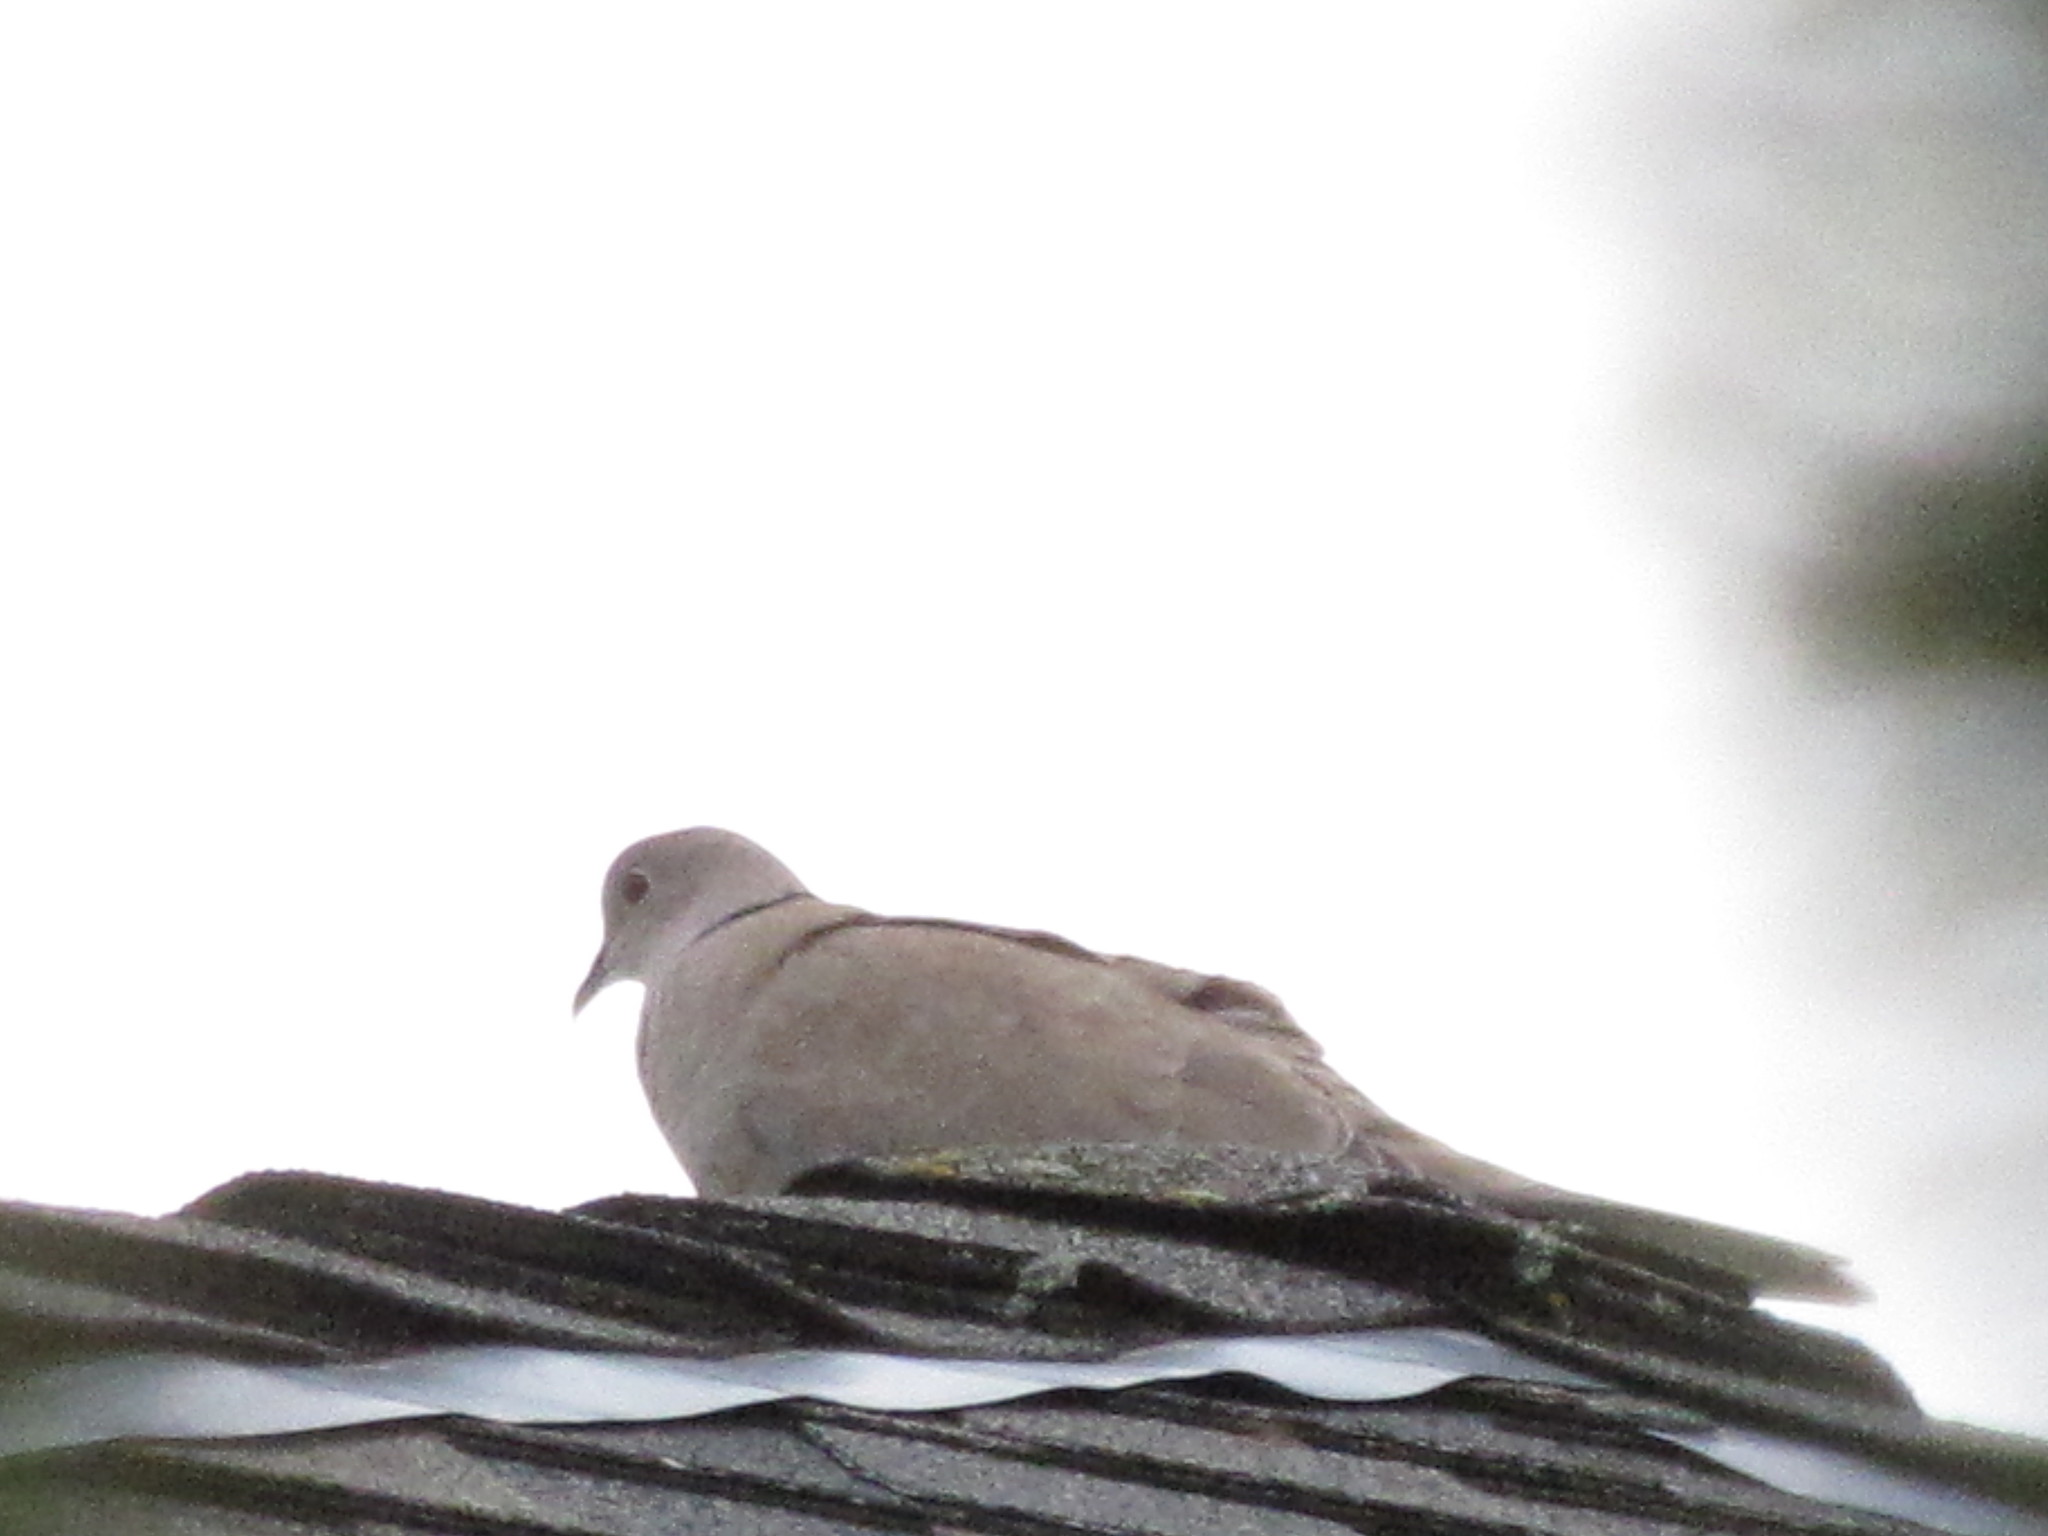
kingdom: Animalia
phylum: Chordata
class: Aves
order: Columbiformes
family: Columbidae
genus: Streptopelia
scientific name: Streptopelia decaocto
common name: Eurasian collared dove
